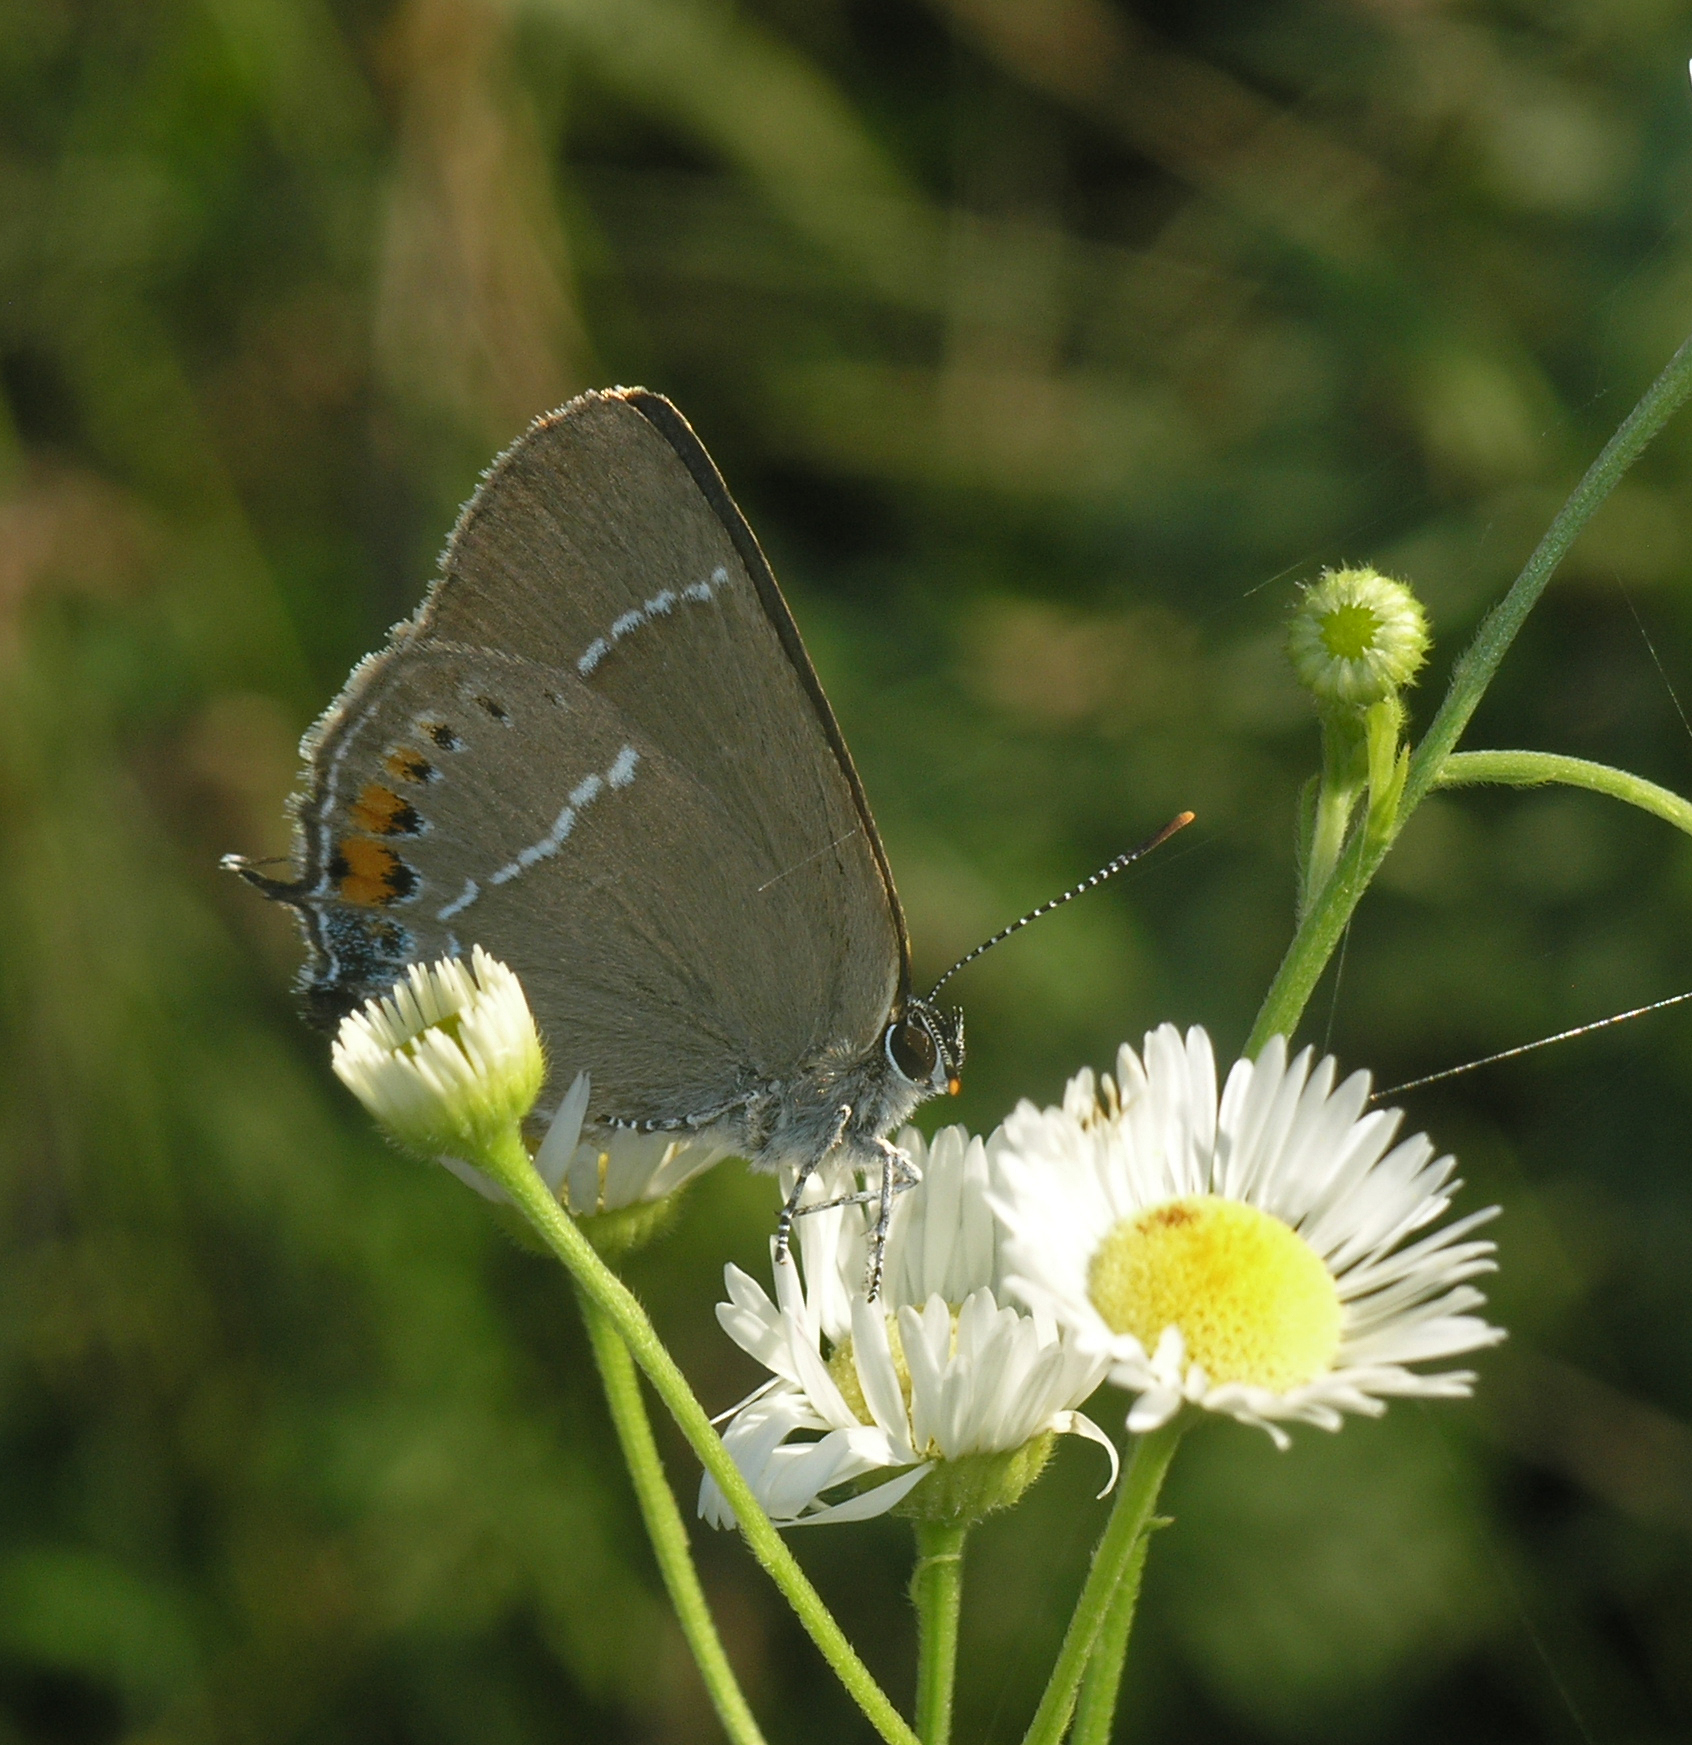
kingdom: Animalia
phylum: Arthropoda
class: Insecta
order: Lepidoptera
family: Lycaenidae
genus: Satyrium
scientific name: Satyrium
